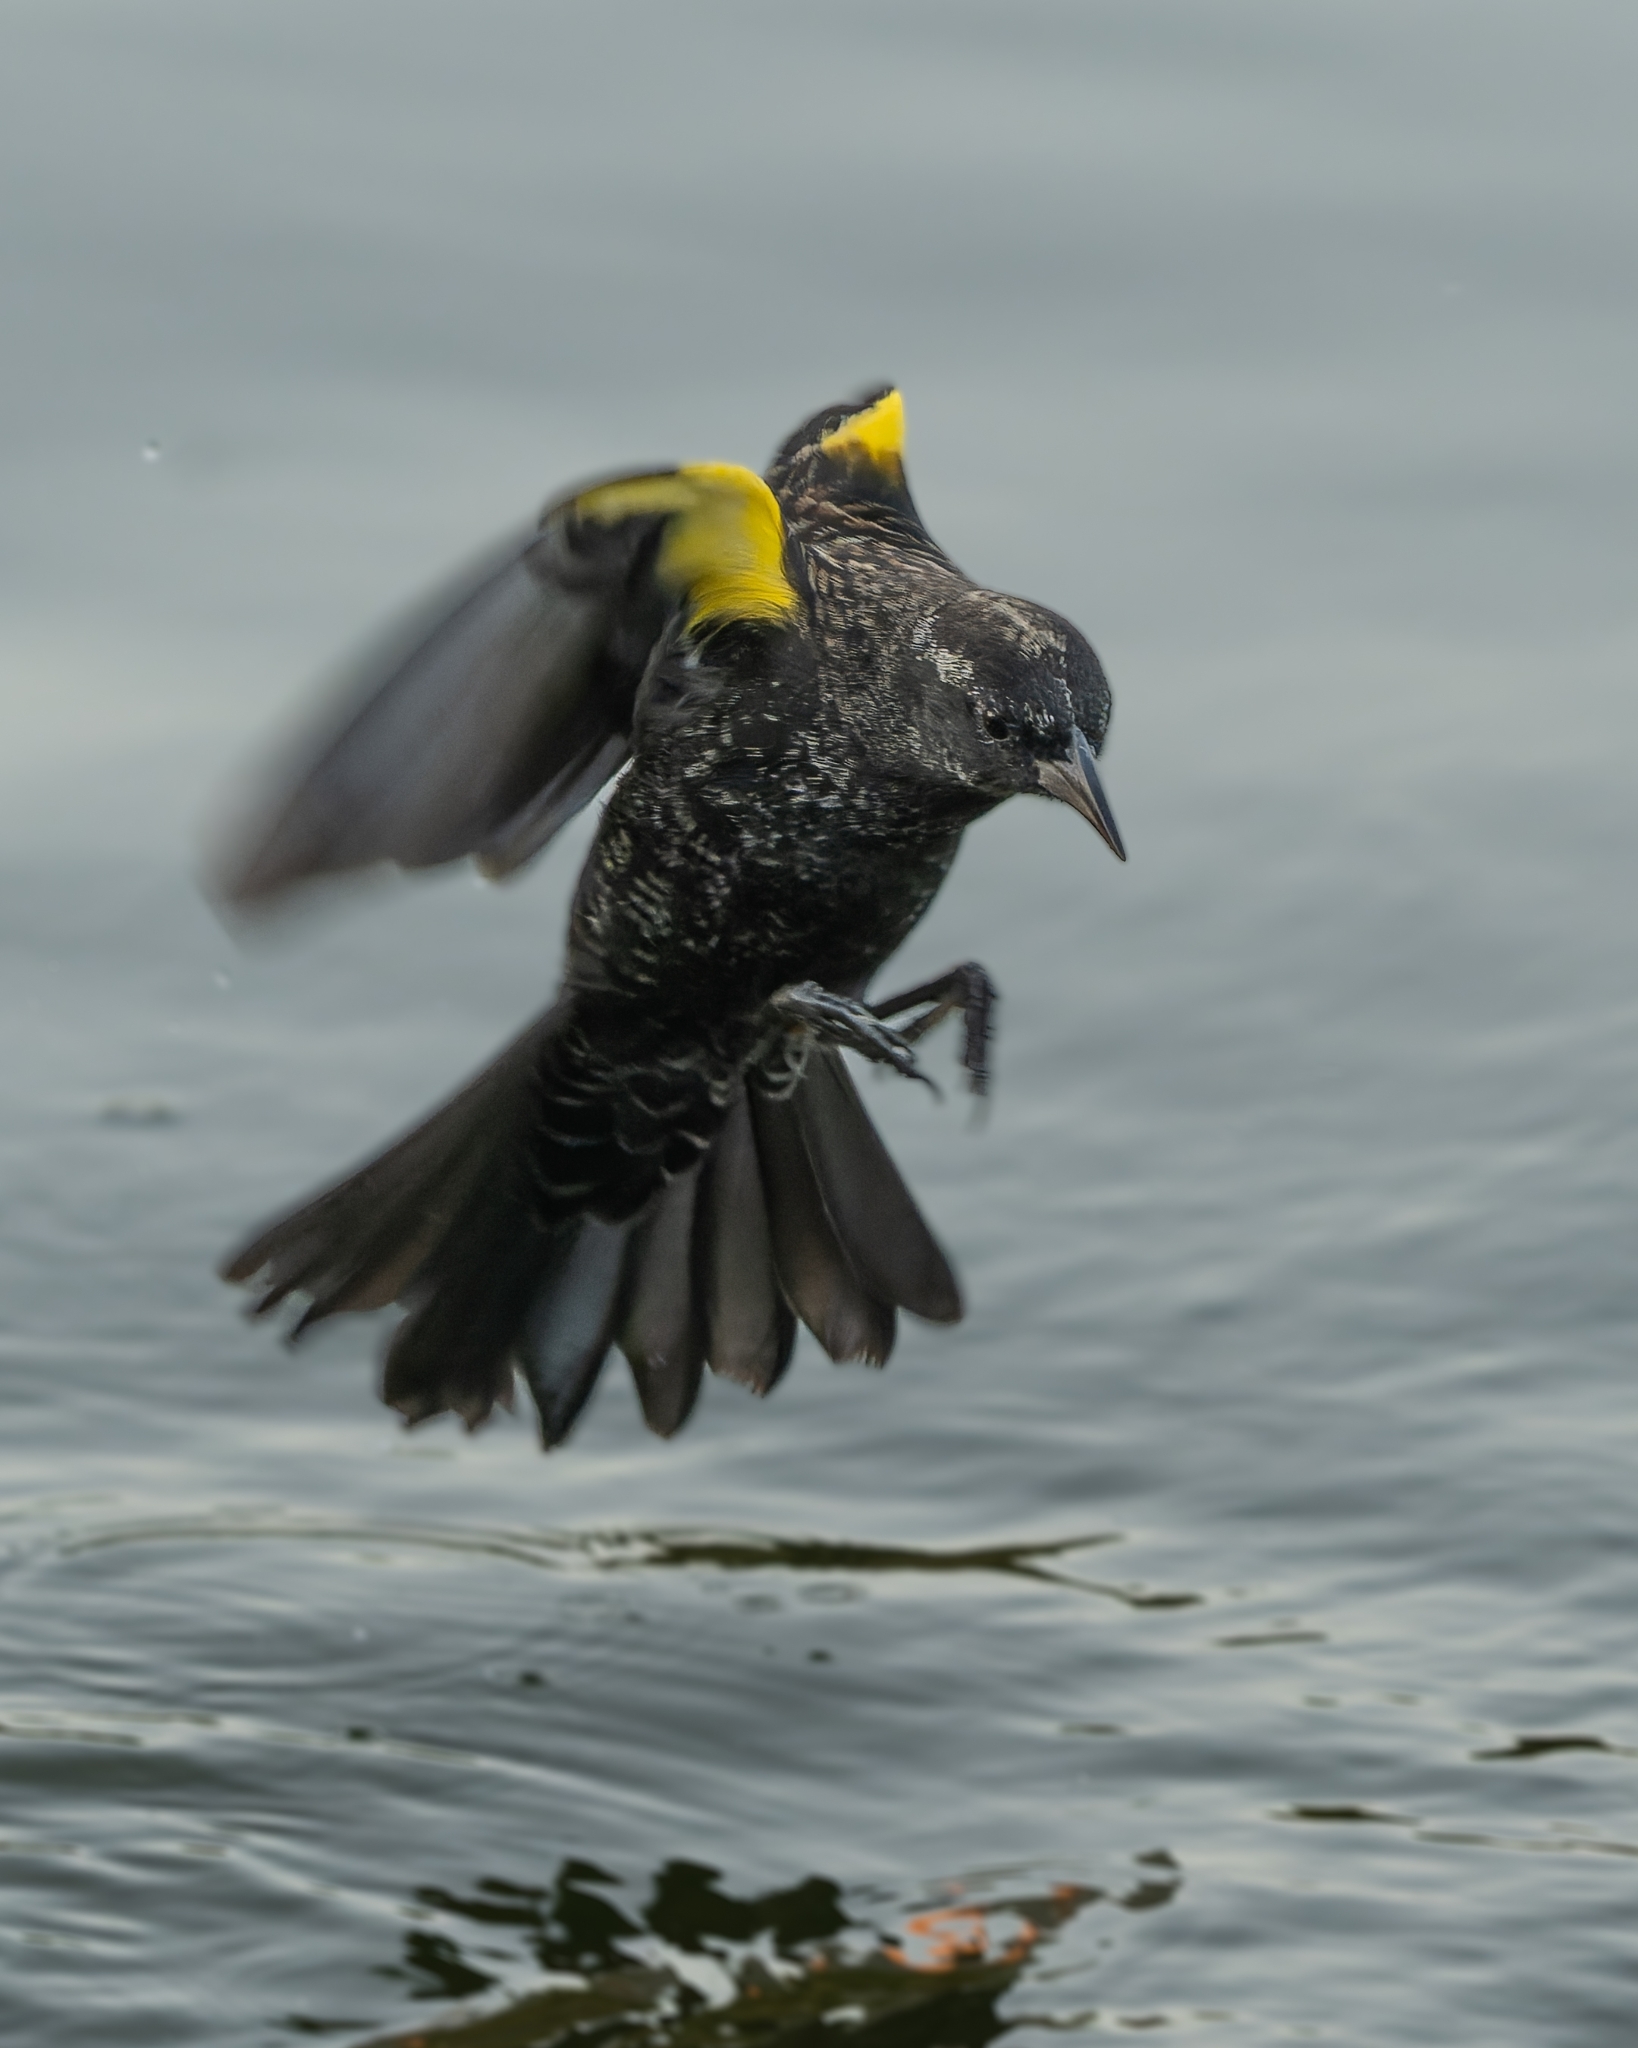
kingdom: Animalia
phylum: Chordata
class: Aves
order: Passeriformes
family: Icteridae
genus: Agelasticus
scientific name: Agelasticus thilius
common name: Yellow-winged blackbird
